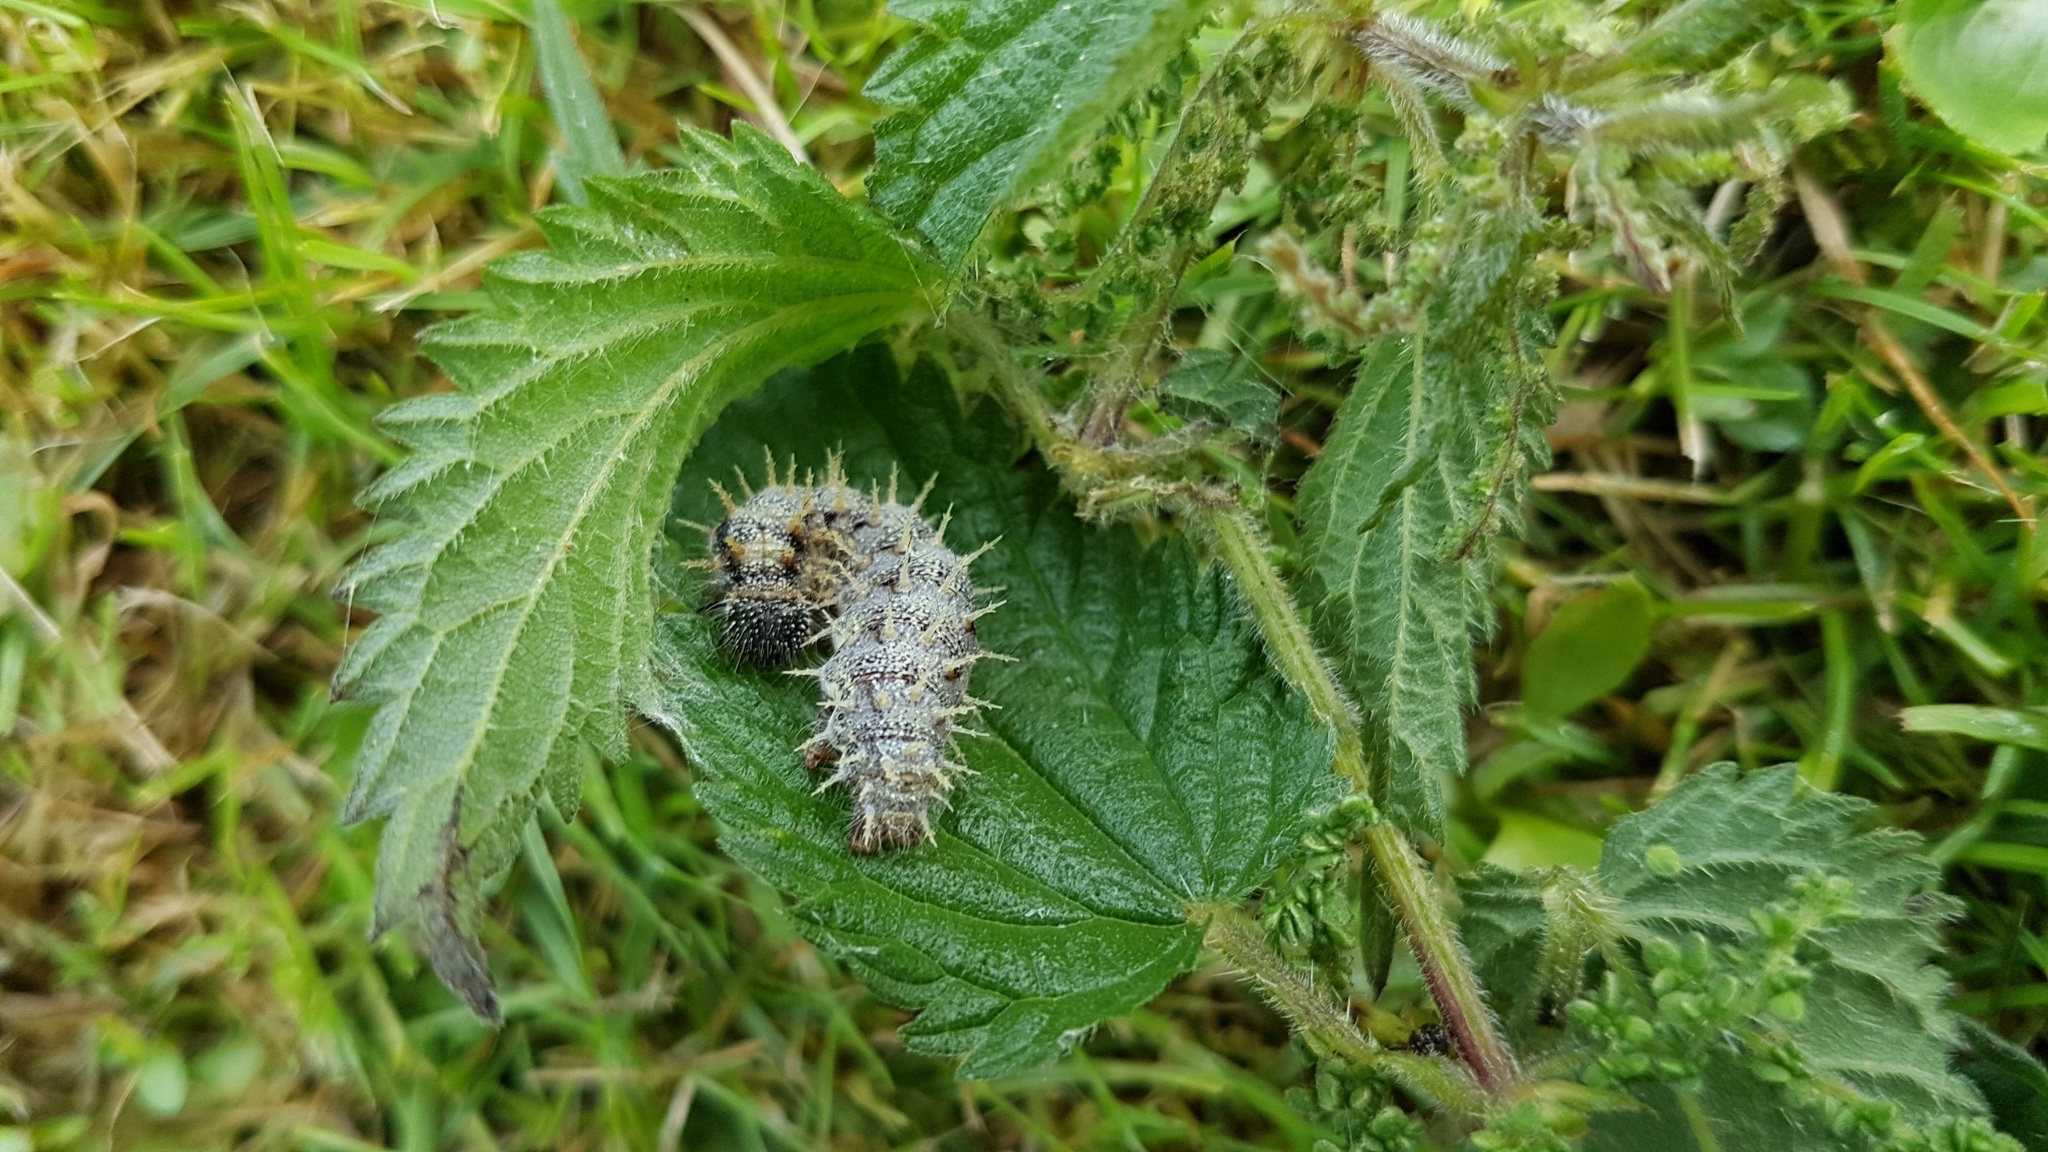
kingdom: Animalia
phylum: Arthropoda
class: Insecta
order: Lepidoptera
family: Nymphalidae
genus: Vanessa
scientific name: Vanessa atalanta
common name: Red admiral
